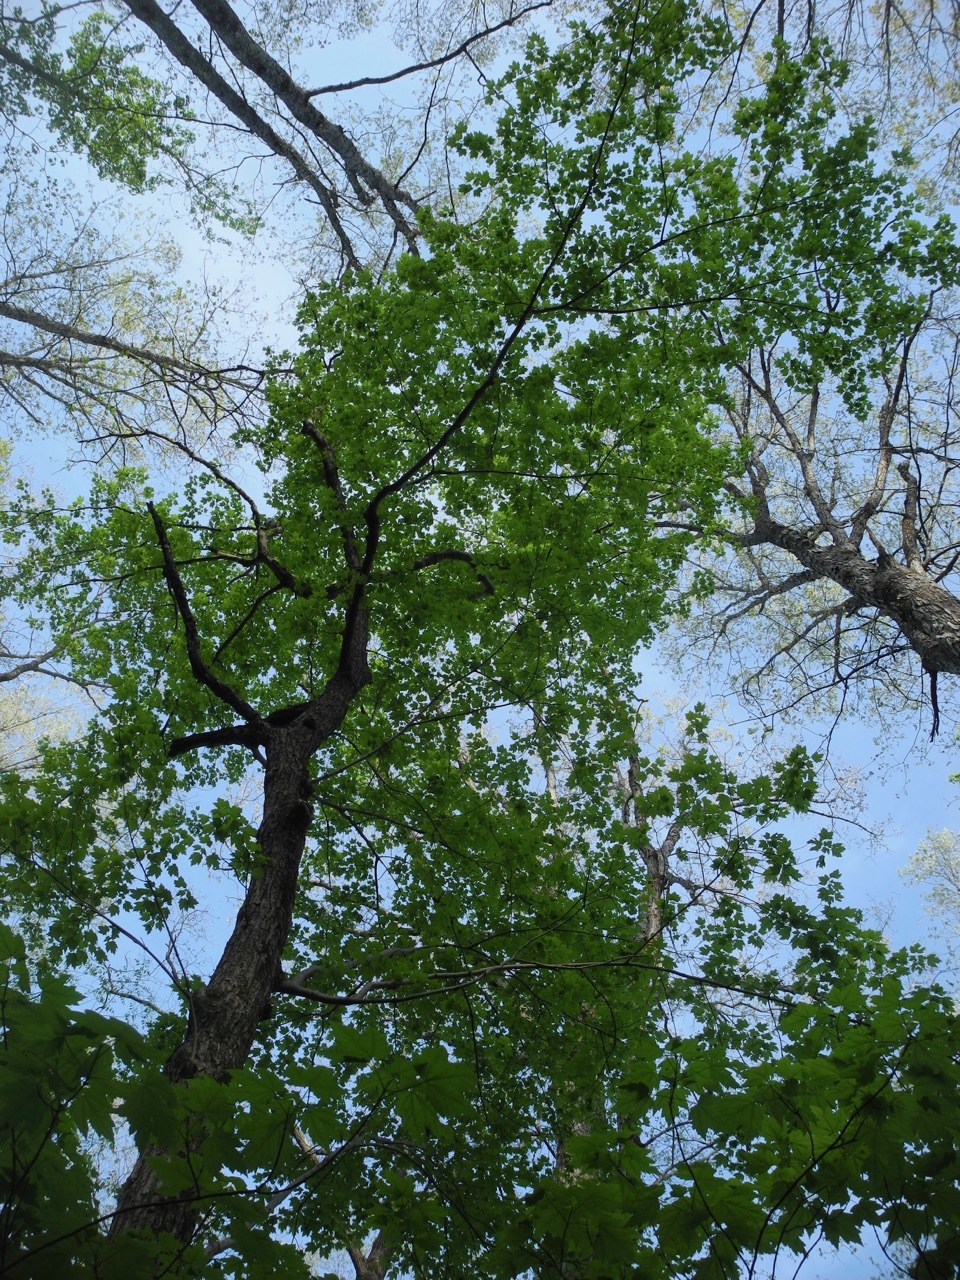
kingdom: Plantae
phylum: Tracheophyta
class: Magnoliopsida
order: Sapindales
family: Sapindaceae
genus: Acer
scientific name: Acer freemanii
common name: Freeman maple
